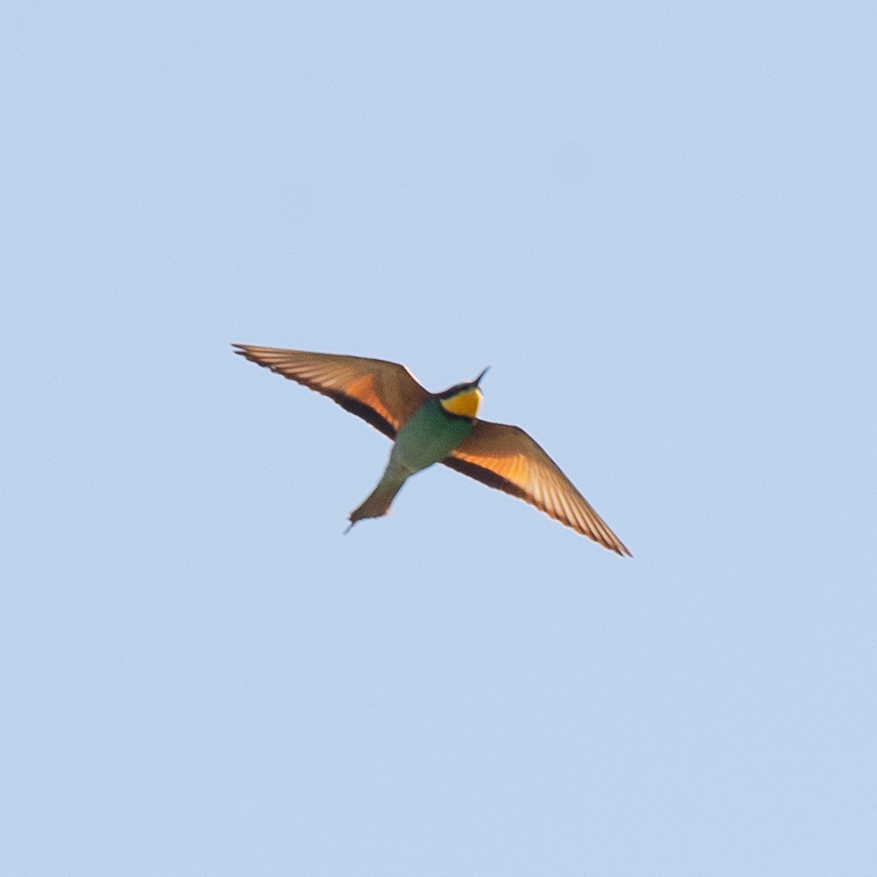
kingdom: Animalia
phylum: Chordata
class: Aves
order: Coraciiformes
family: Meropidae
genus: Merops
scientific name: Merops apiaster
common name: European bee-eater
